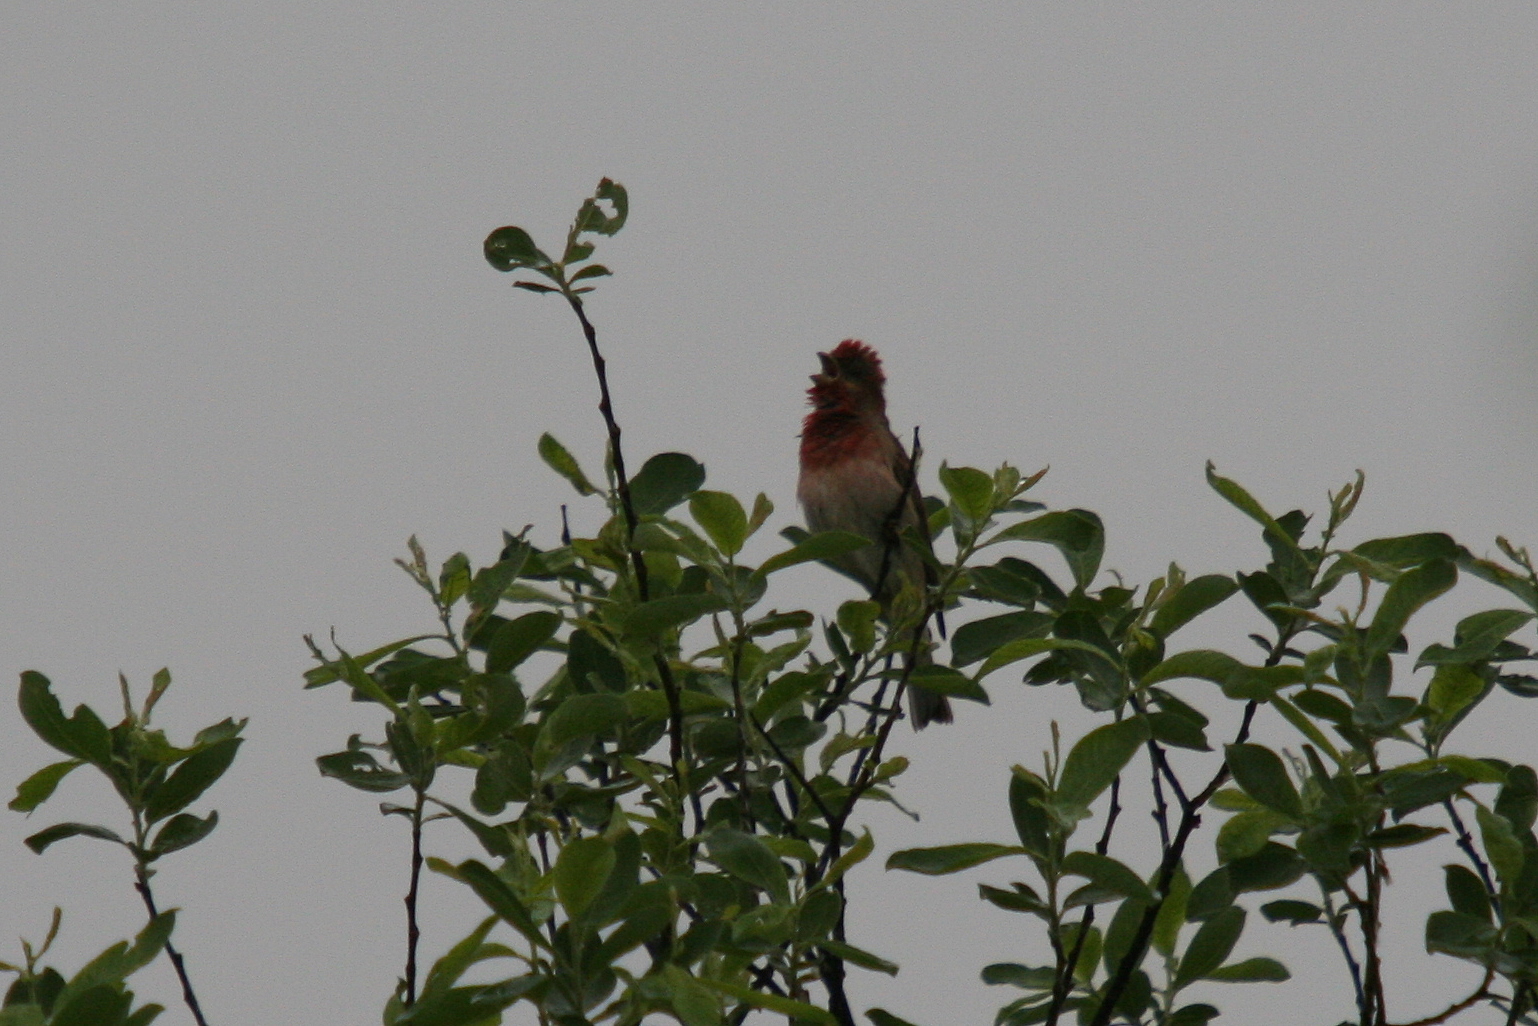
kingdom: Animalia
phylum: Chordata
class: Aves
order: Passeriformes
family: Fringillidae
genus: Carpodacus
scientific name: Carpodacus erythrinus
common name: Common rosefinch
